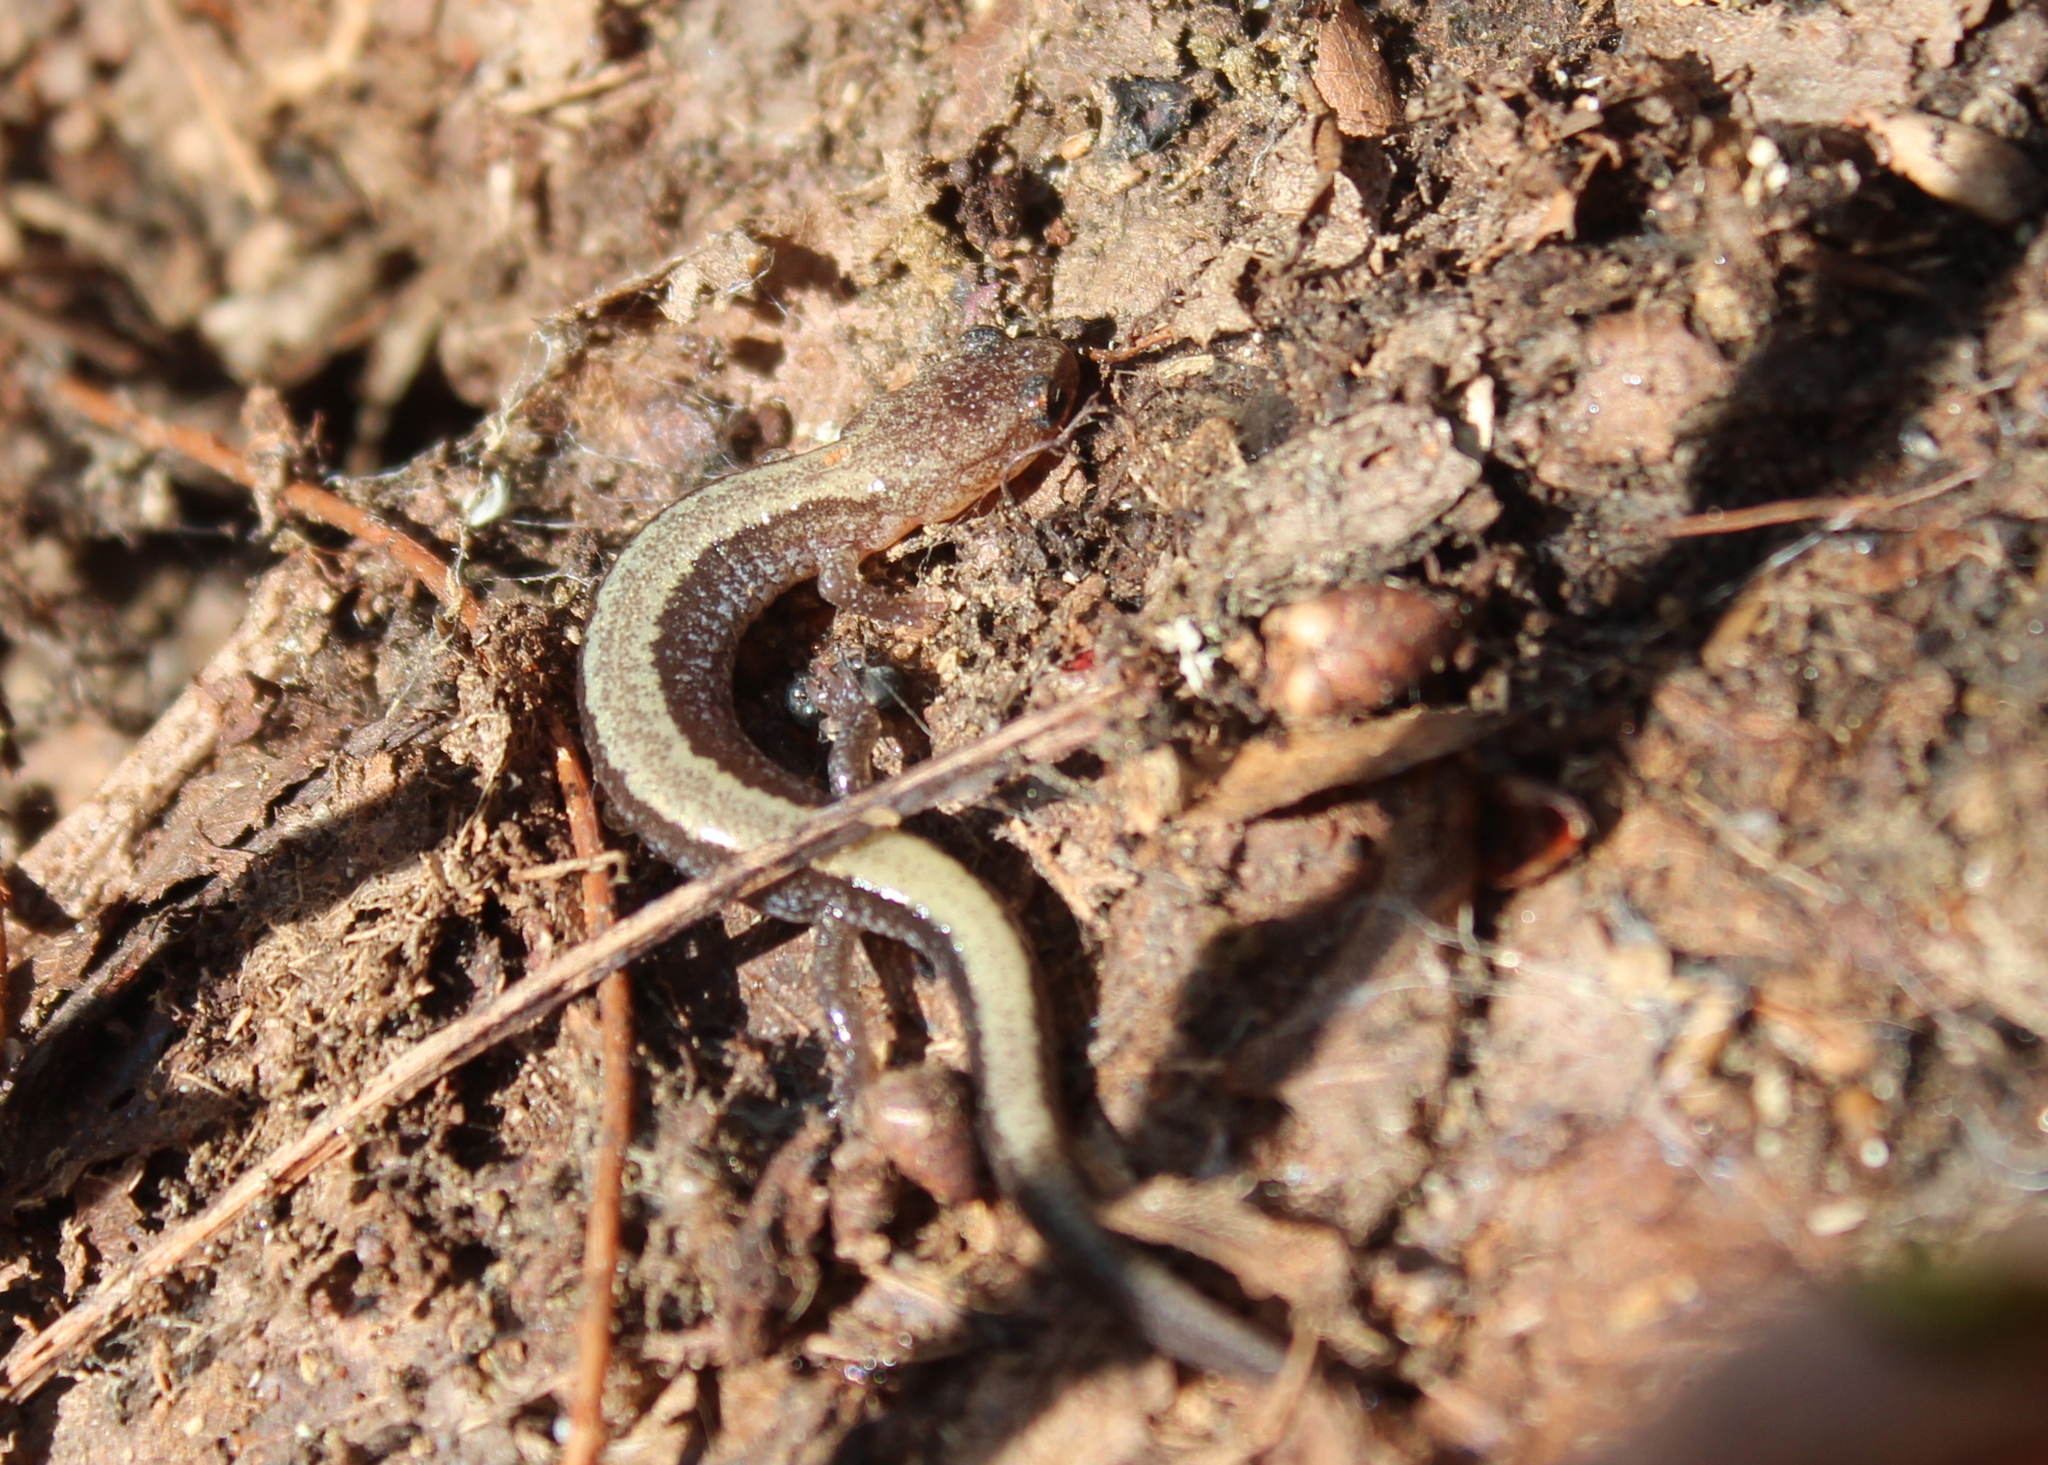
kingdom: Animalia
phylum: Chordata
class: Amphibia
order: Caudata
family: Plethodontidae
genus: Plethodon
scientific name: Plethodon cinereus
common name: Redback salamander
